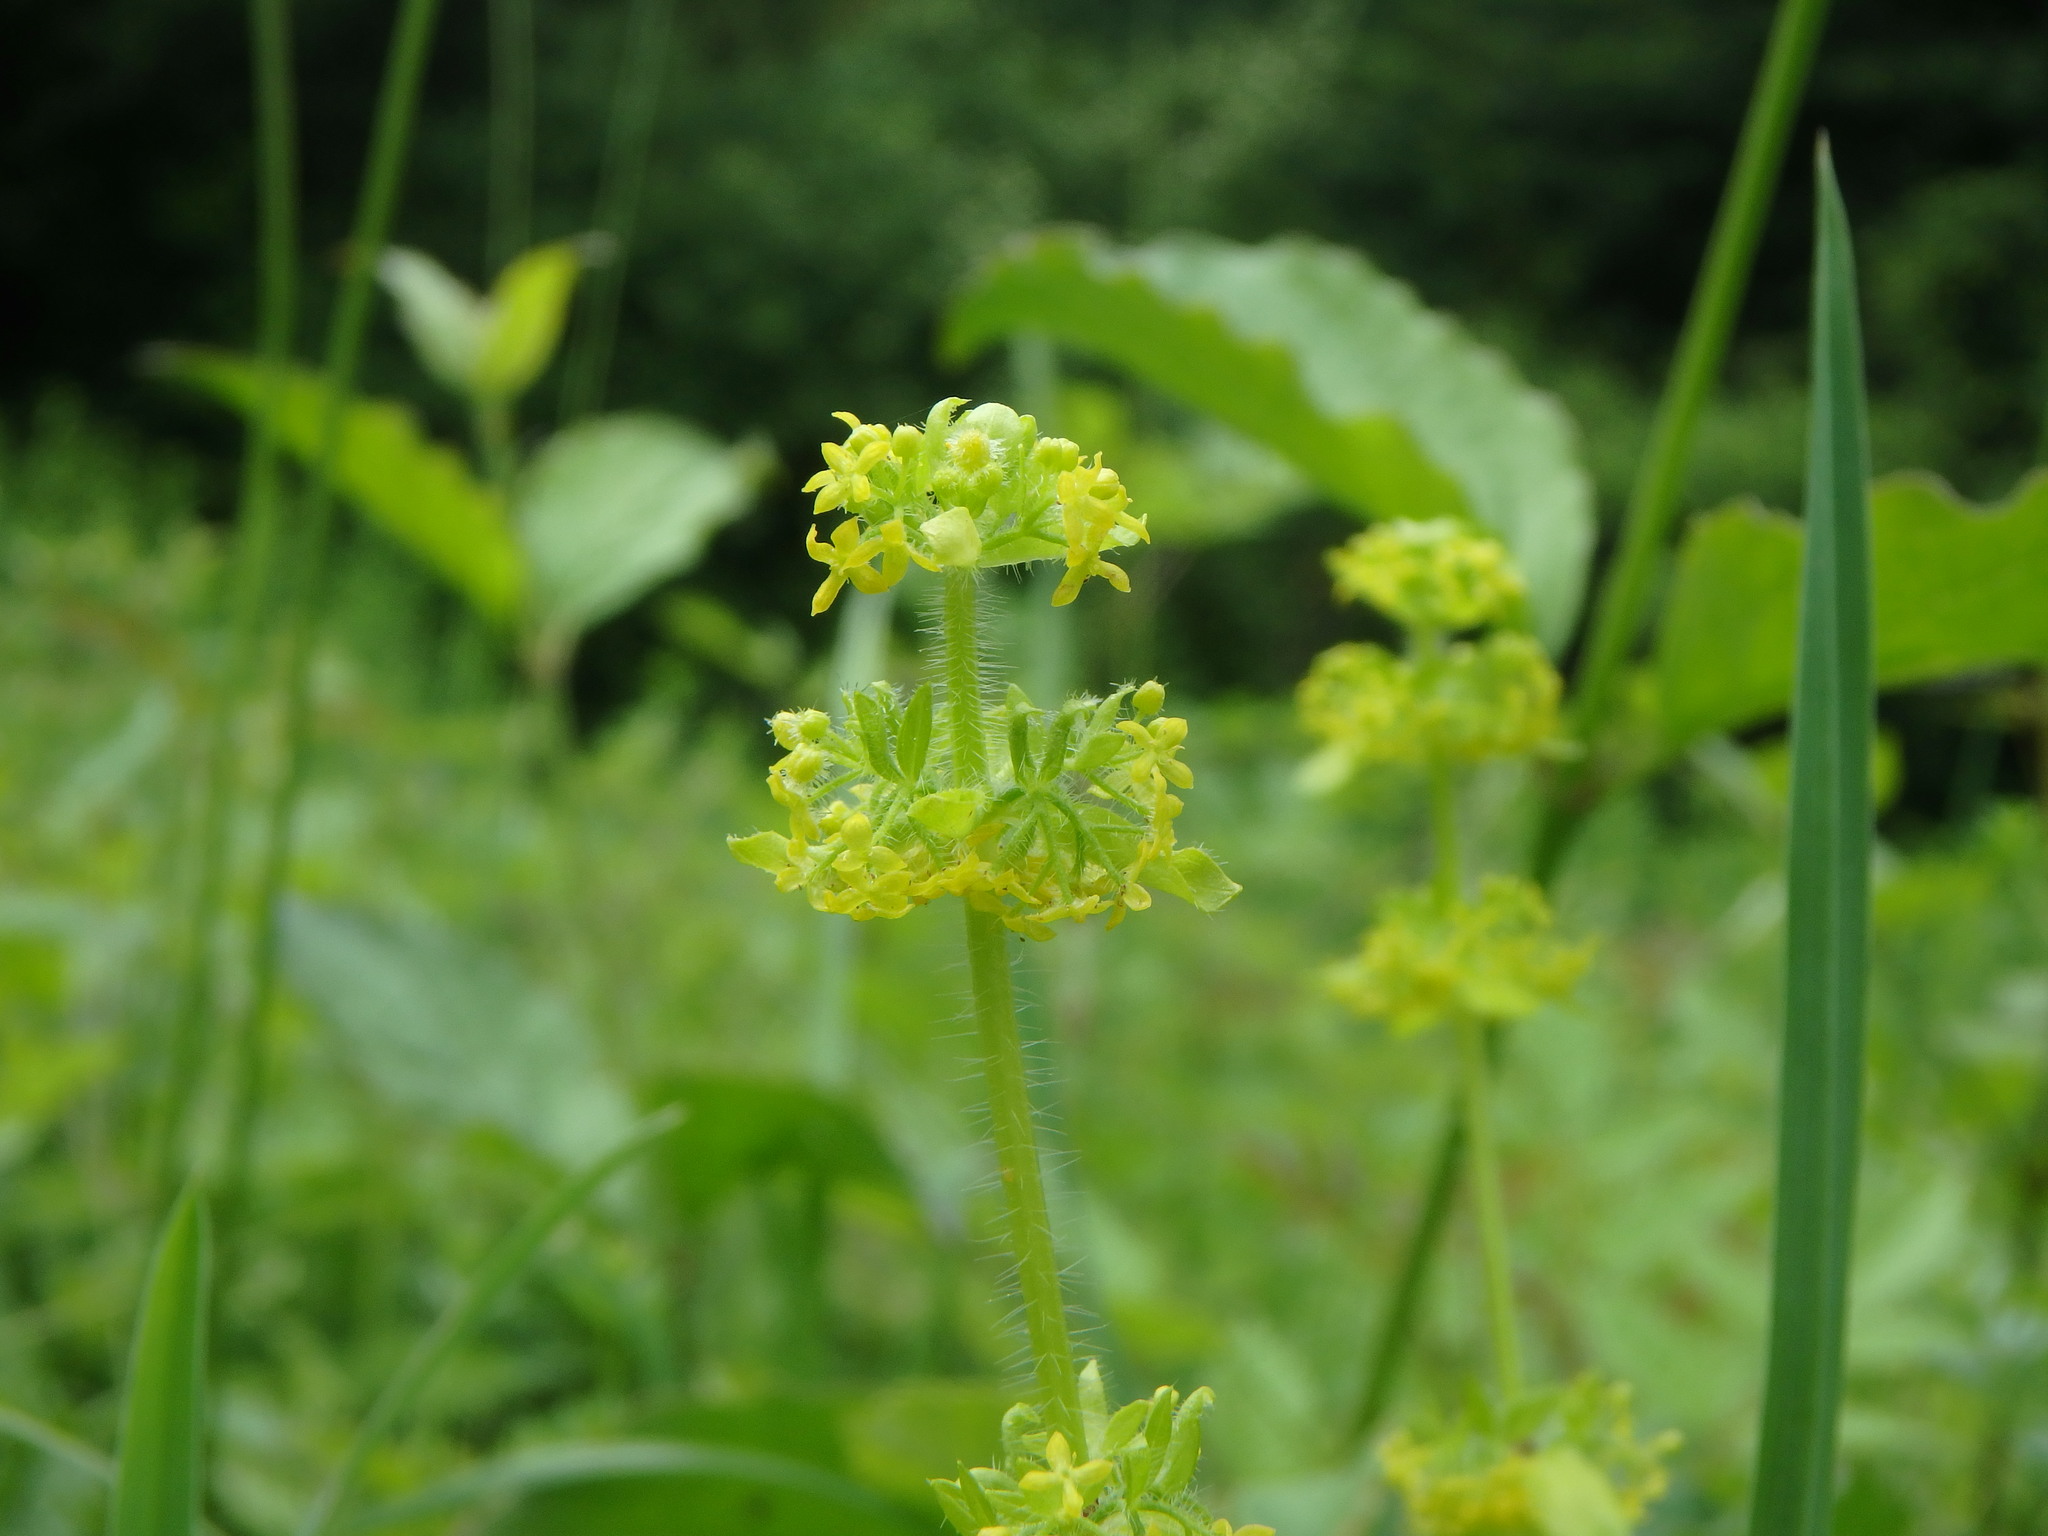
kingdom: Plantae
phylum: Tracheophyta
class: Magnoliopsida
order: Gentianales
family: Rubiaceae
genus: Cruciata
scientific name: Cruciata laevipes
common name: Crosswort
